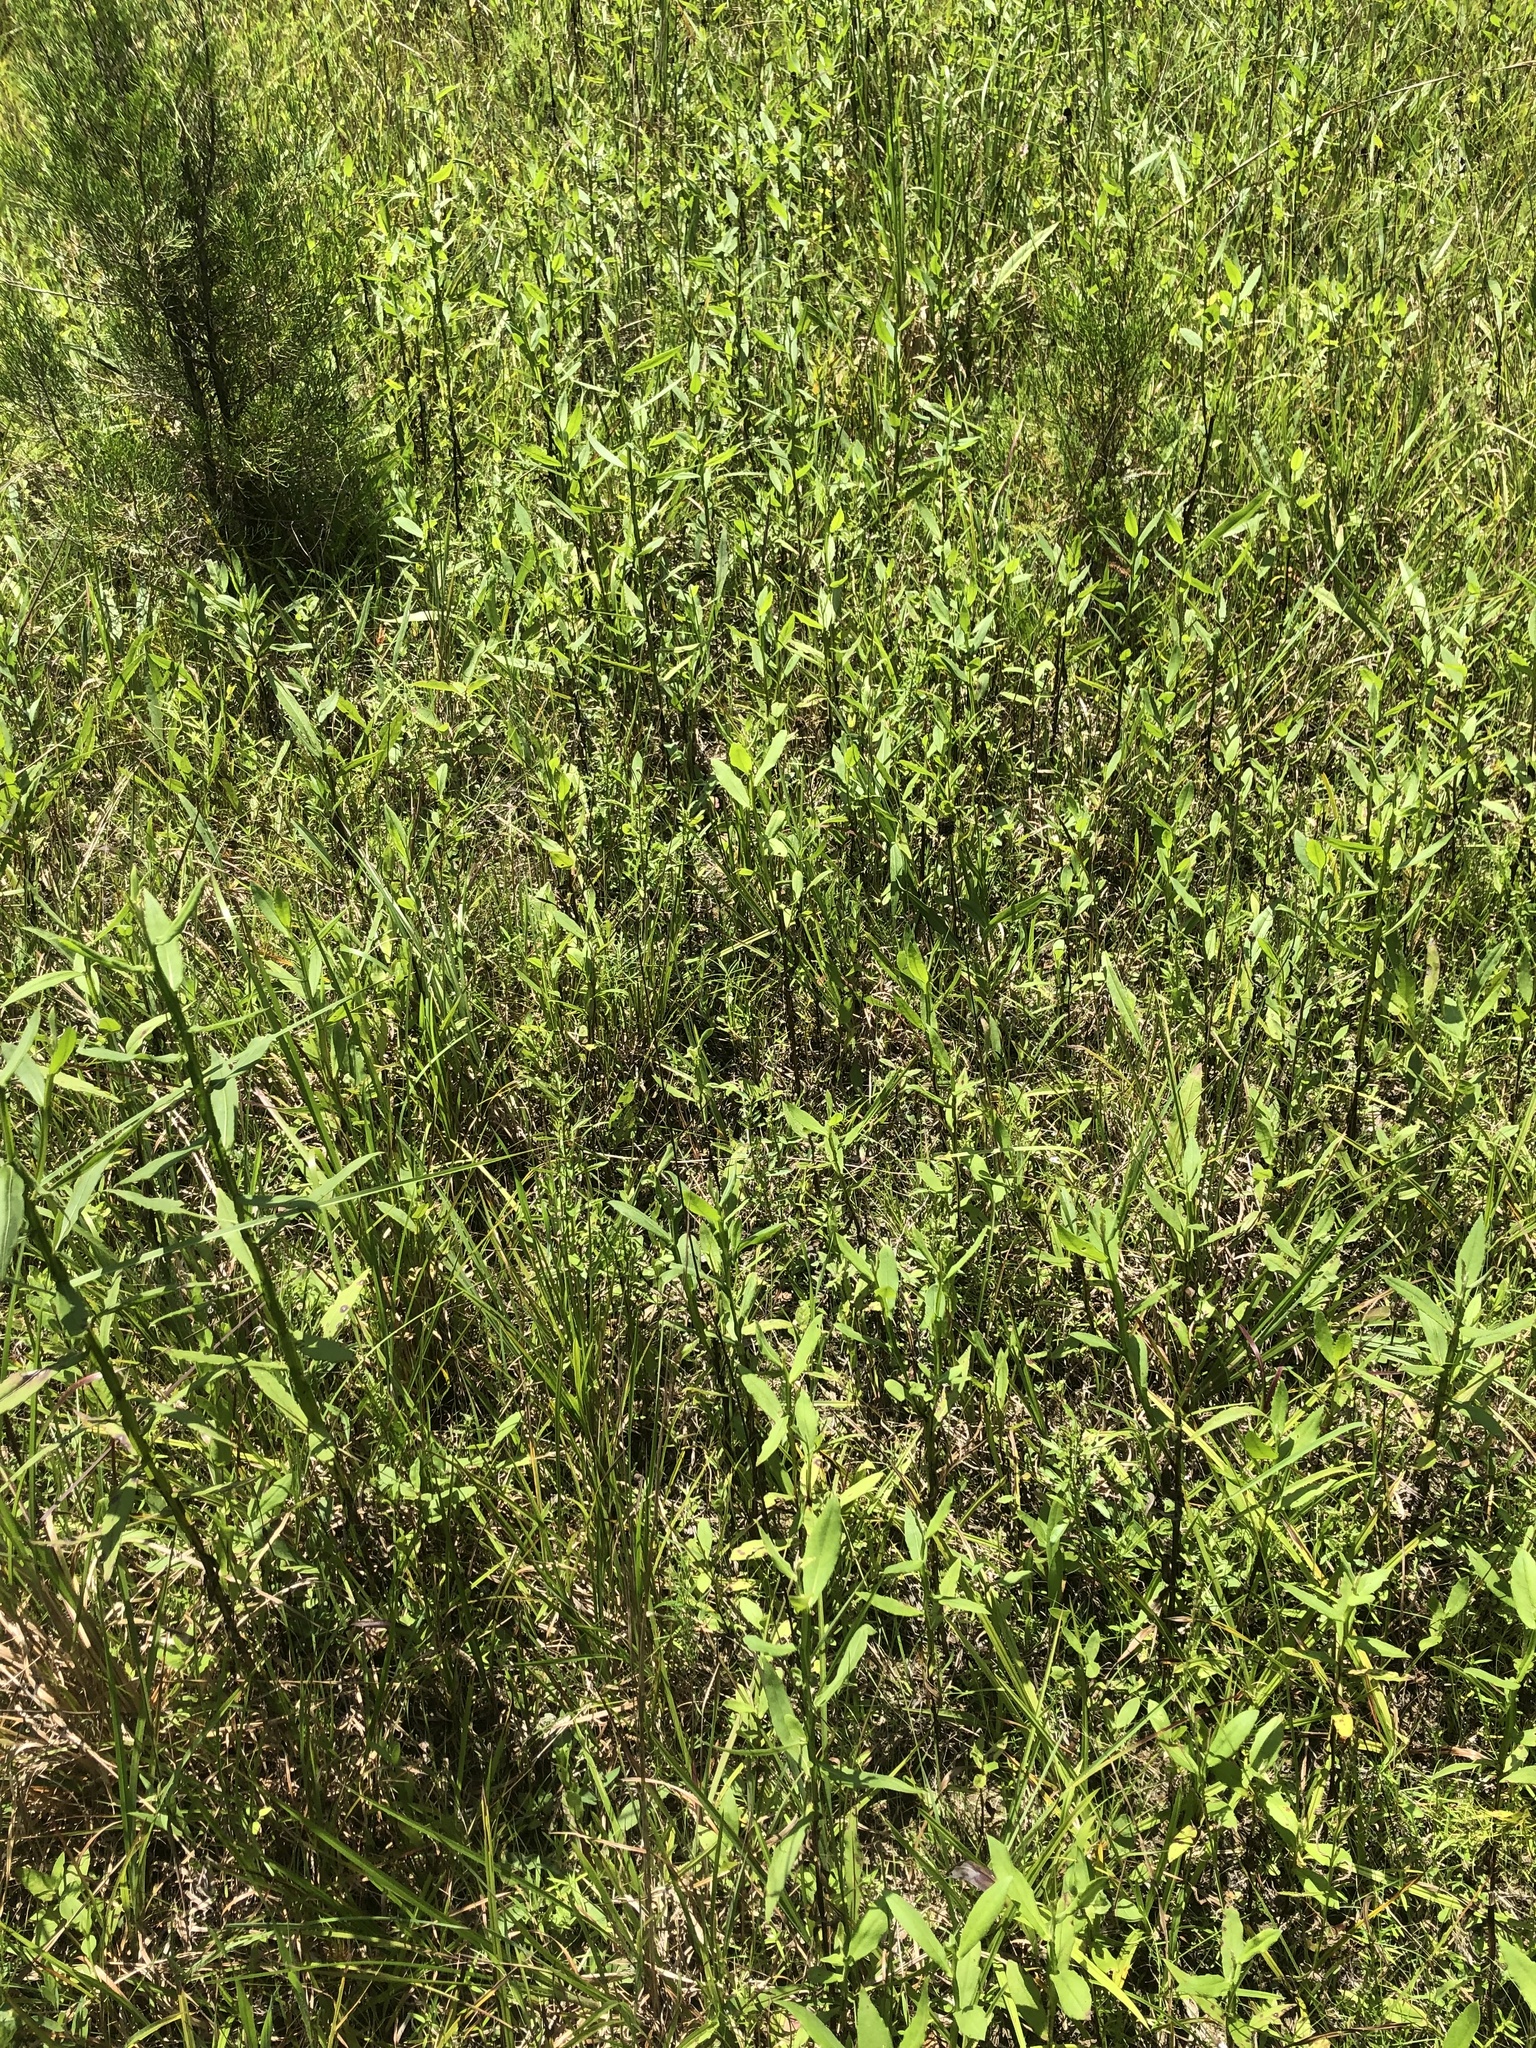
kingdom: Plantae
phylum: Tracheophyta
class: Magnoliopsida
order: Asterales
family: Asteraceae
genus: Helenium
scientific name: Helenium autumnale
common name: Sneezeweed
